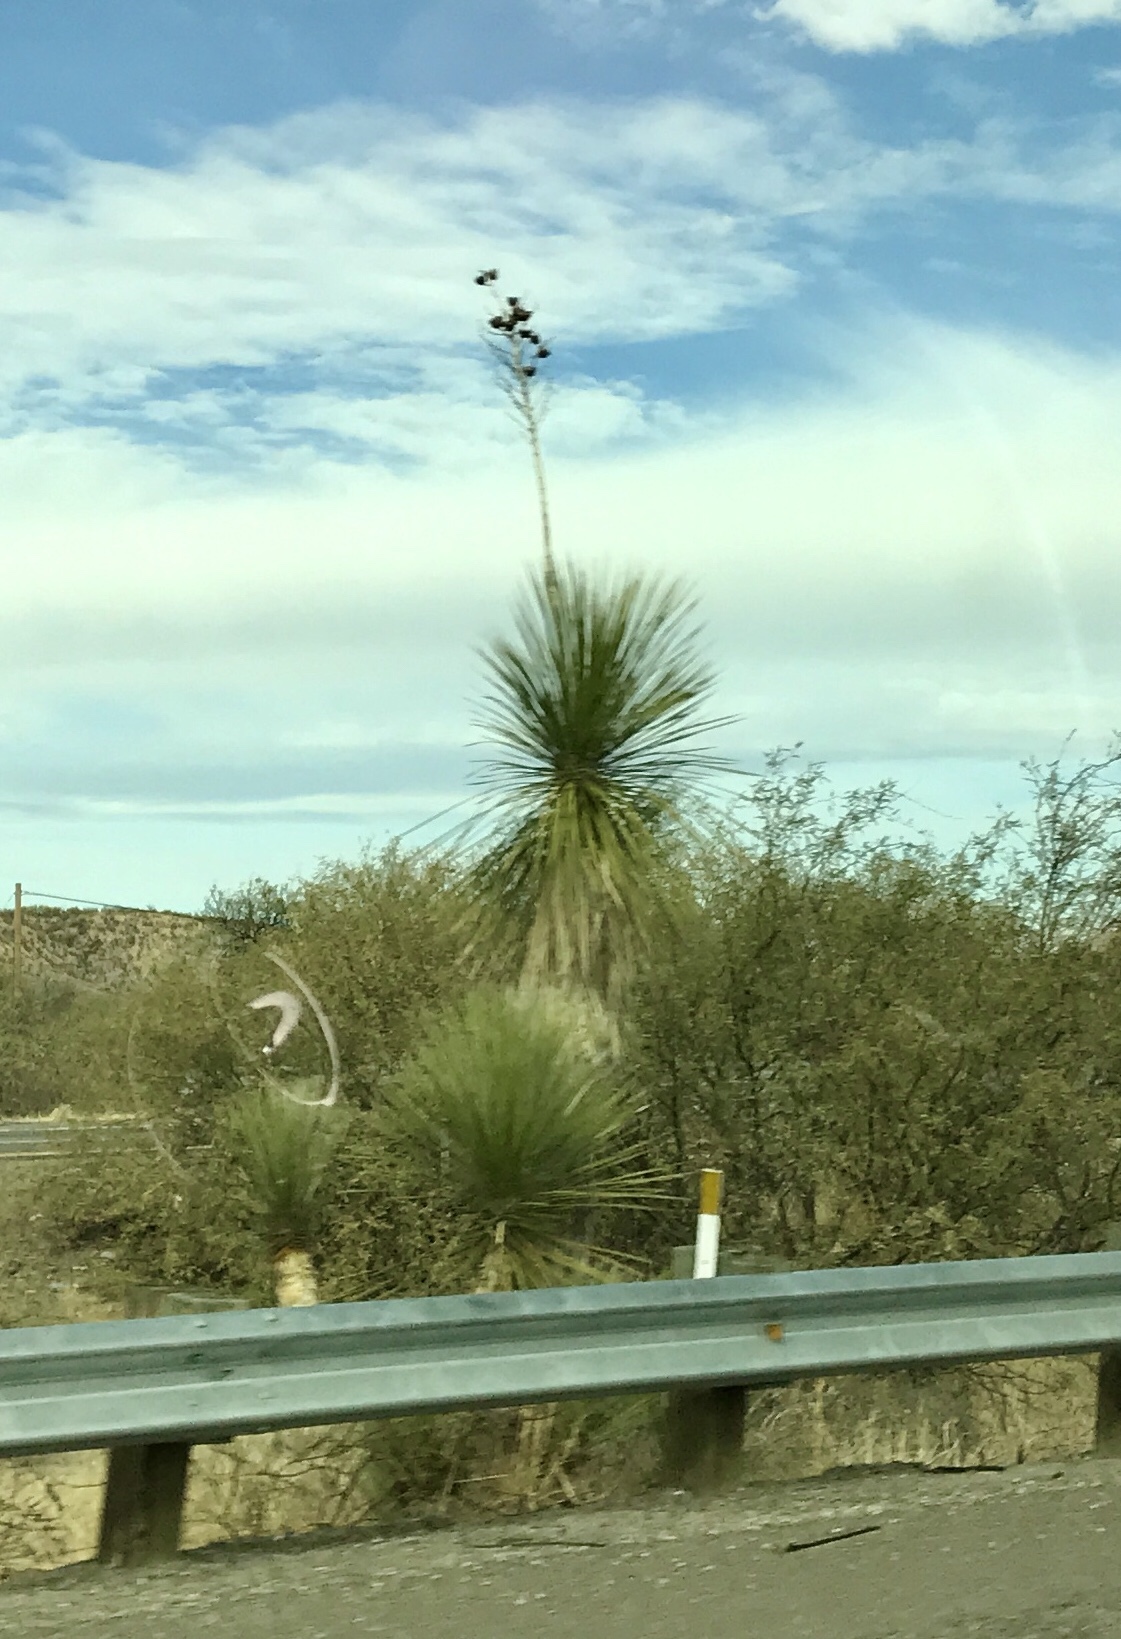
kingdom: Plantae
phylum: Tracheophyta
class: Liliopsida
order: Asparagales
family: Asparagaceae
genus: Yucca
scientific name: Yucca elata
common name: Palmella
